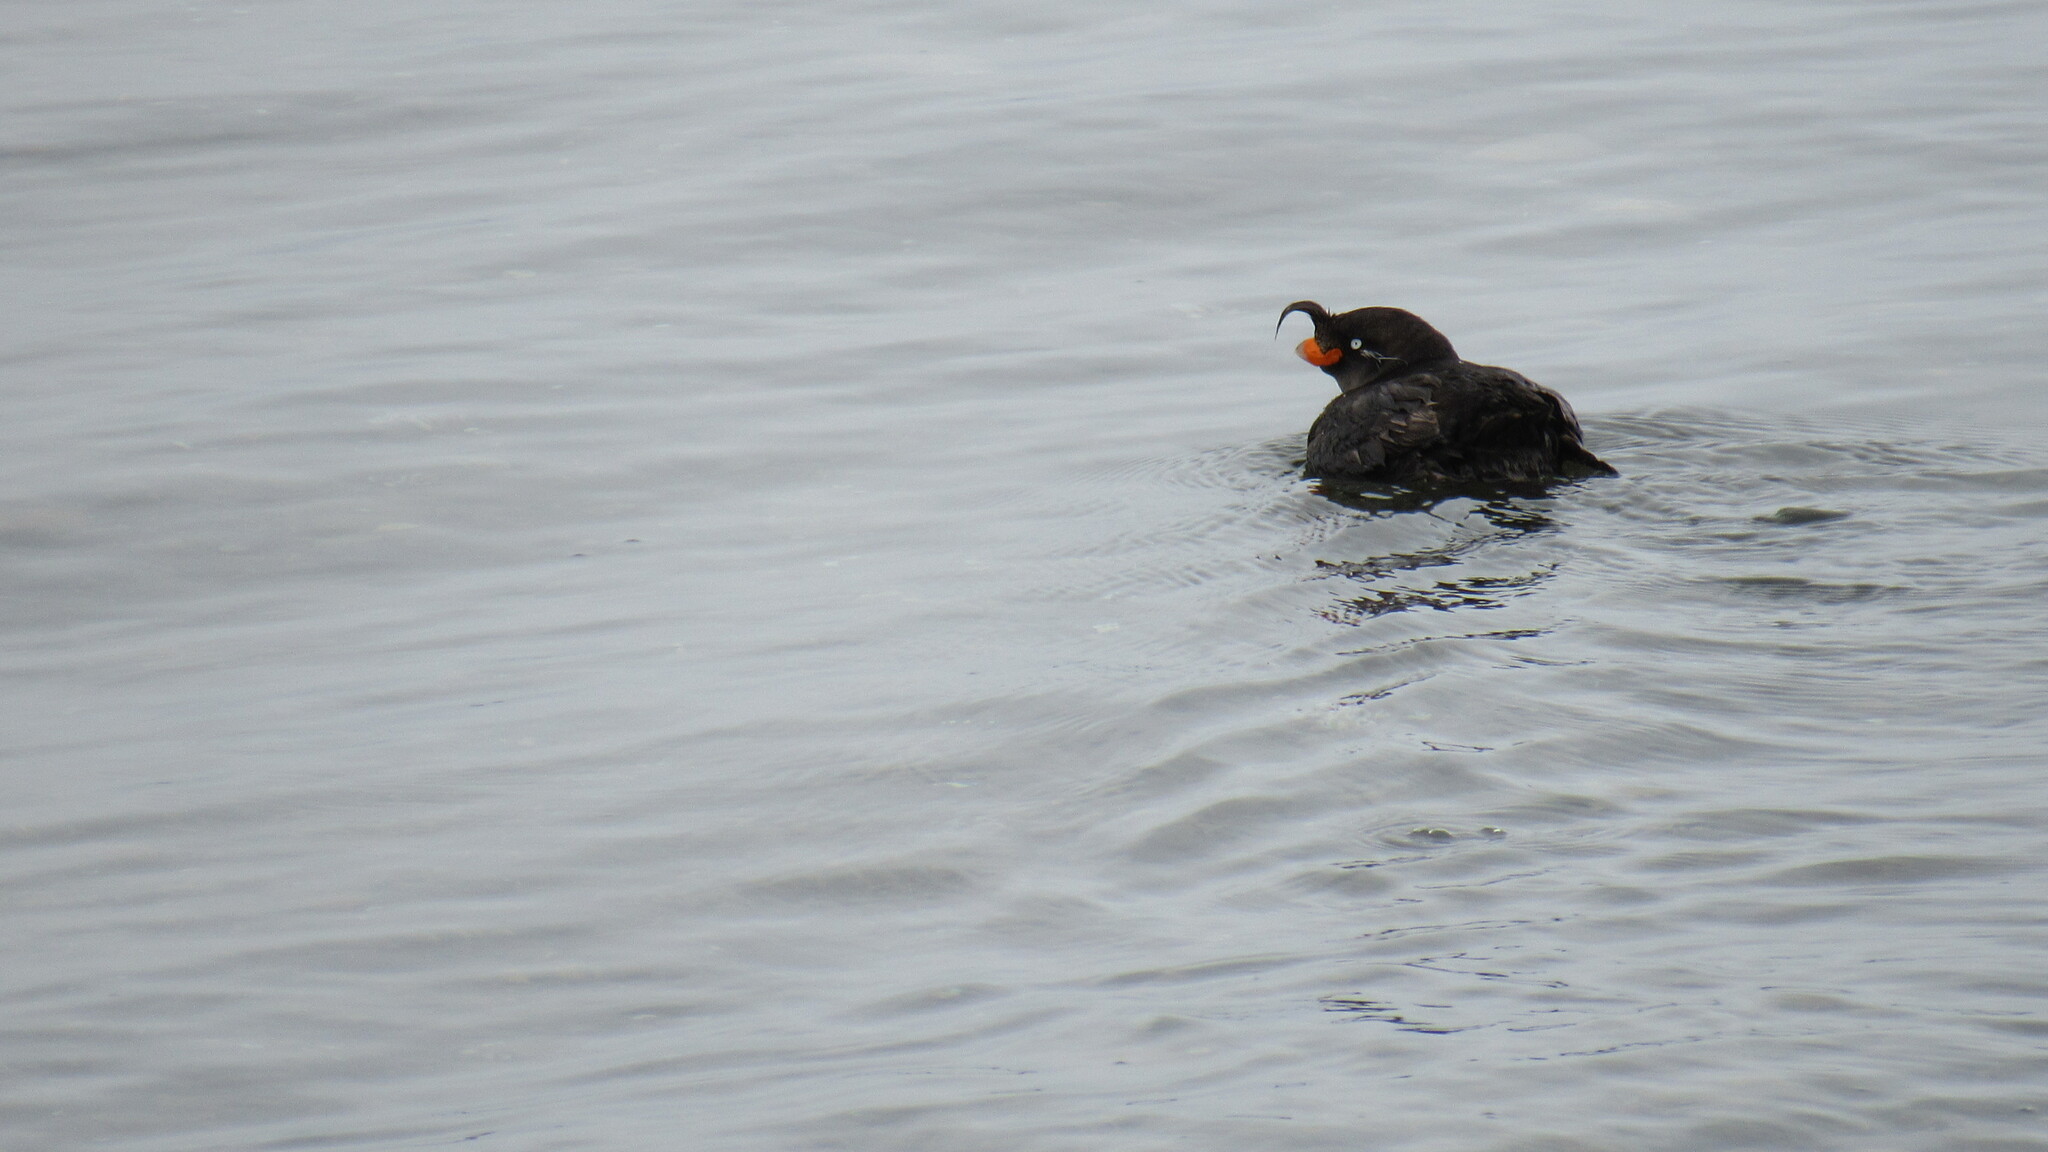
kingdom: Animalia
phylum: Chordata
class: Aves
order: Charadriiformes
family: Alcidae
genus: Aethia
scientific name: Aethia cristatella
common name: Crested auklet
